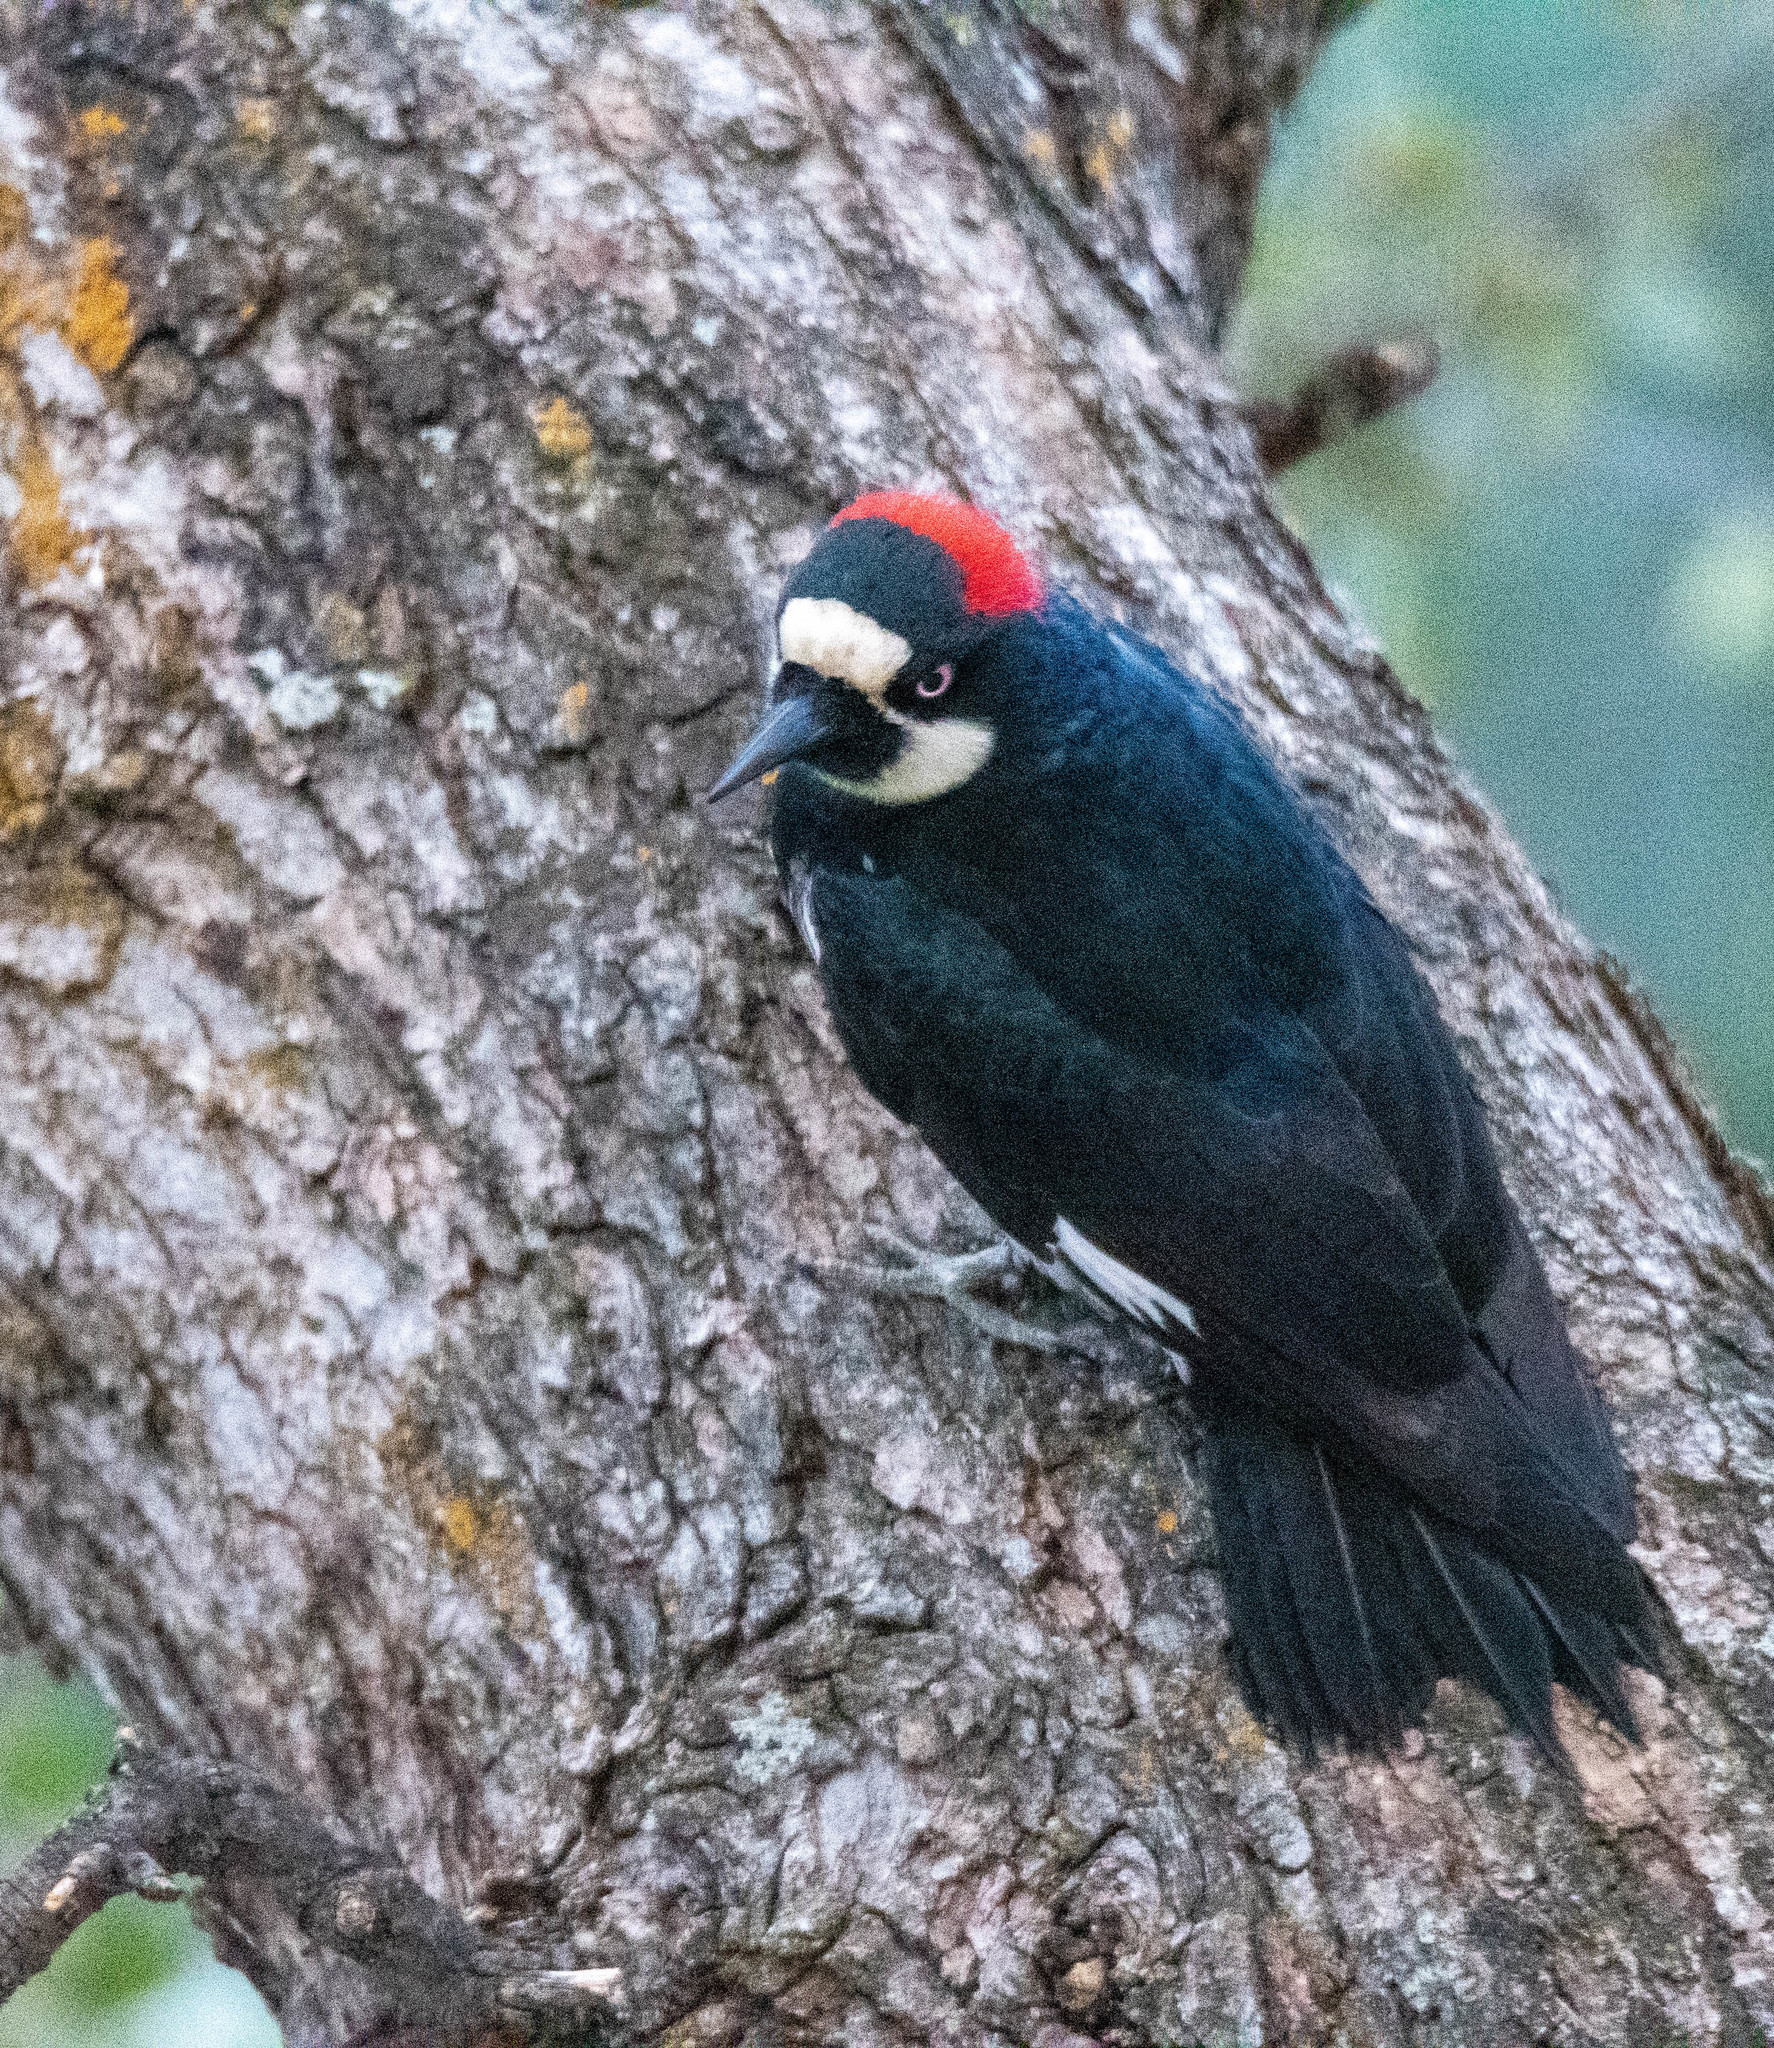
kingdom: Animalia
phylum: Chordata
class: Aves
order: Piciformes
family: Picidae
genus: Melanerpes
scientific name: Melanerpes formicivorus
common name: Acorn woodpecker
